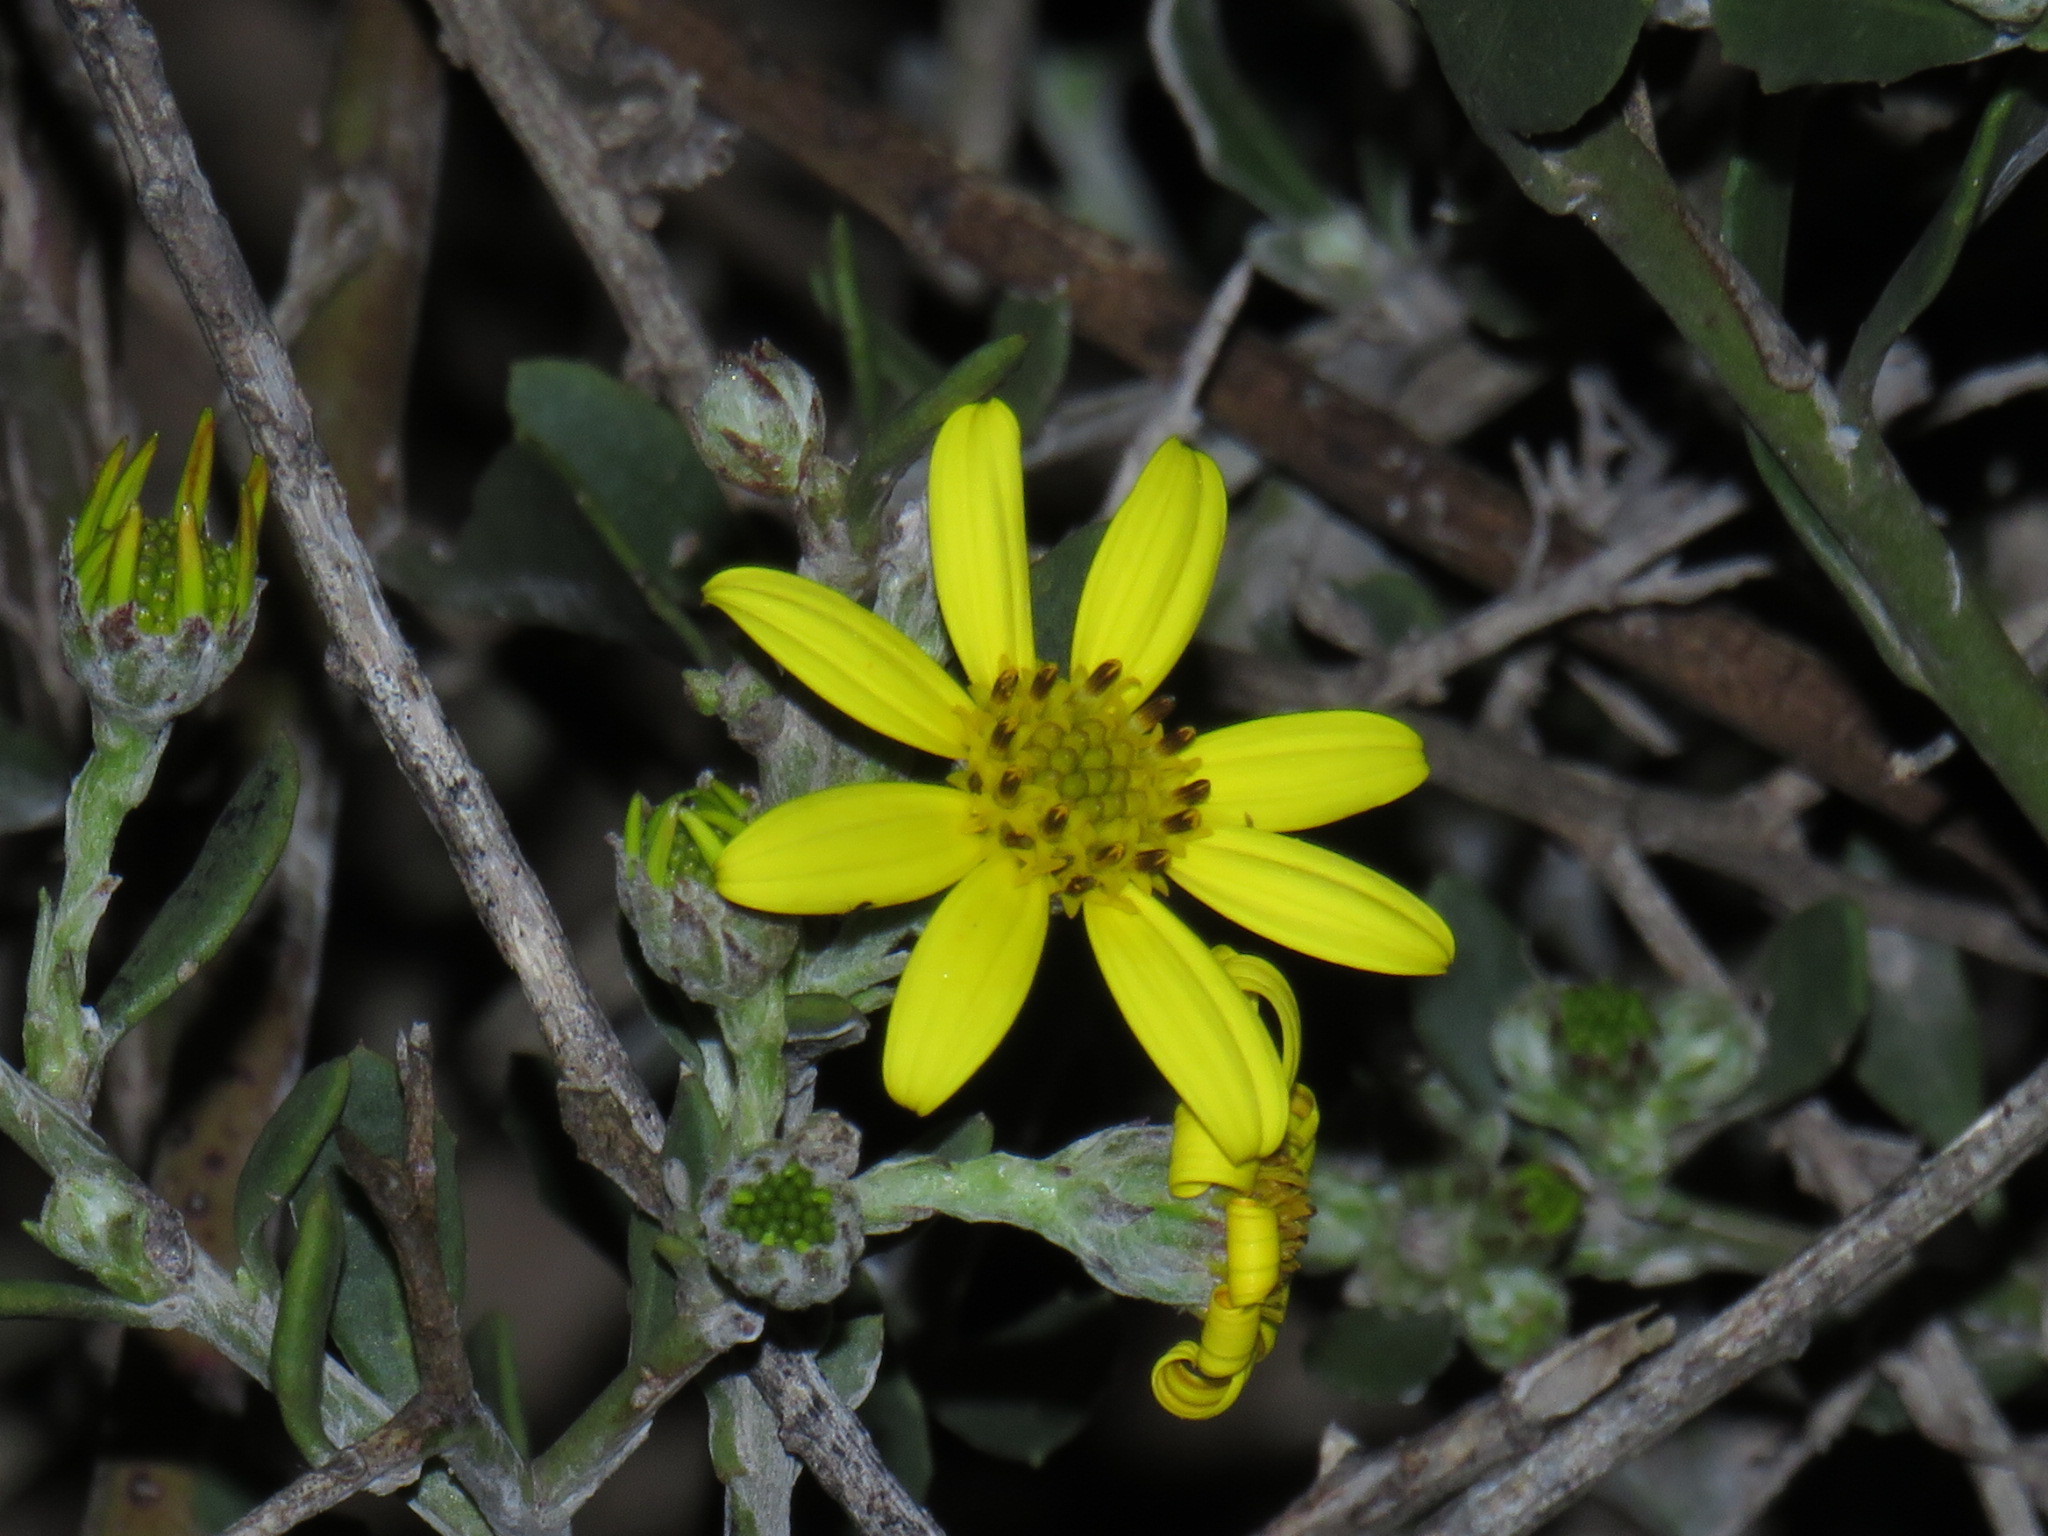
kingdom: Plantae
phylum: Tracheophyta
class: Magnoliopsida
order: Asterales
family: Asteraceae
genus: Osteospermum
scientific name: Osteospermum incanum
